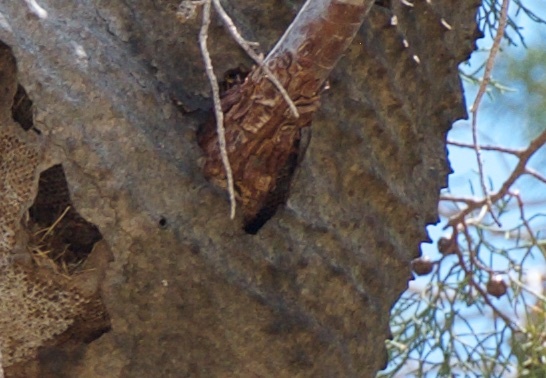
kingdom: Animalia
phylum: Arthropoda
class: Insecta
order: Hymenoptera
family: Eumenidae
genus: Polybia
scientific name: Polybia scutellaris
